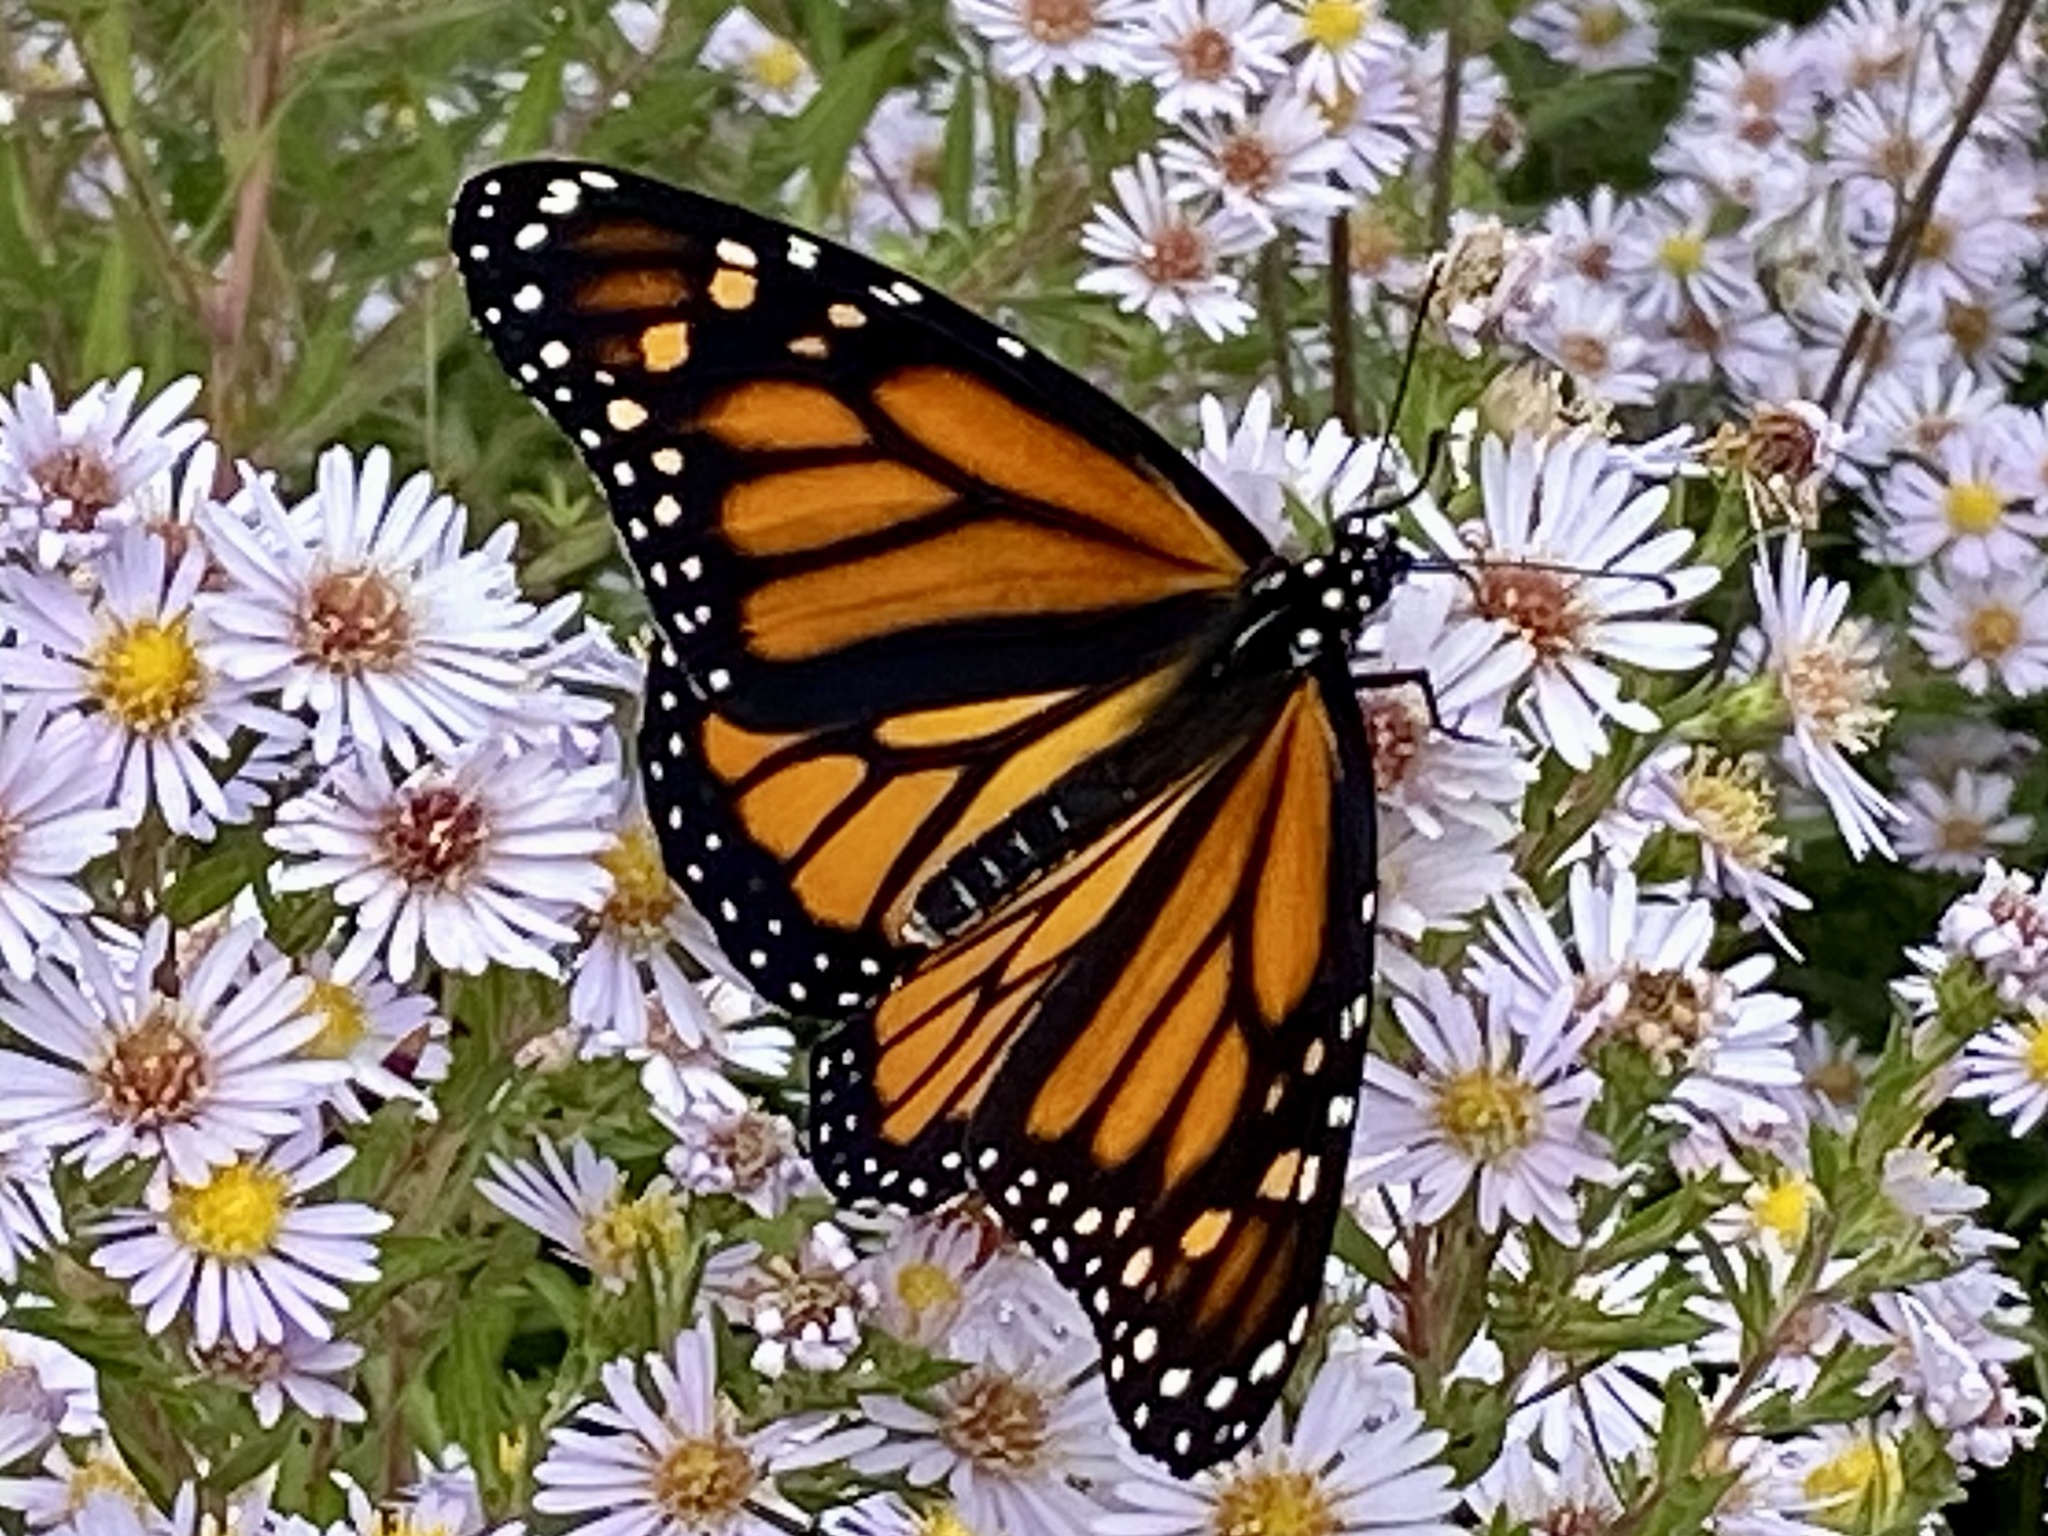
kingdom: Animalia
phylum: Arthropoda
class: Insecta
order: Lepidoptera
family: Nymphalidae
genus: Danaus
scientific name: Danaus plexippus
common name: Monarch
